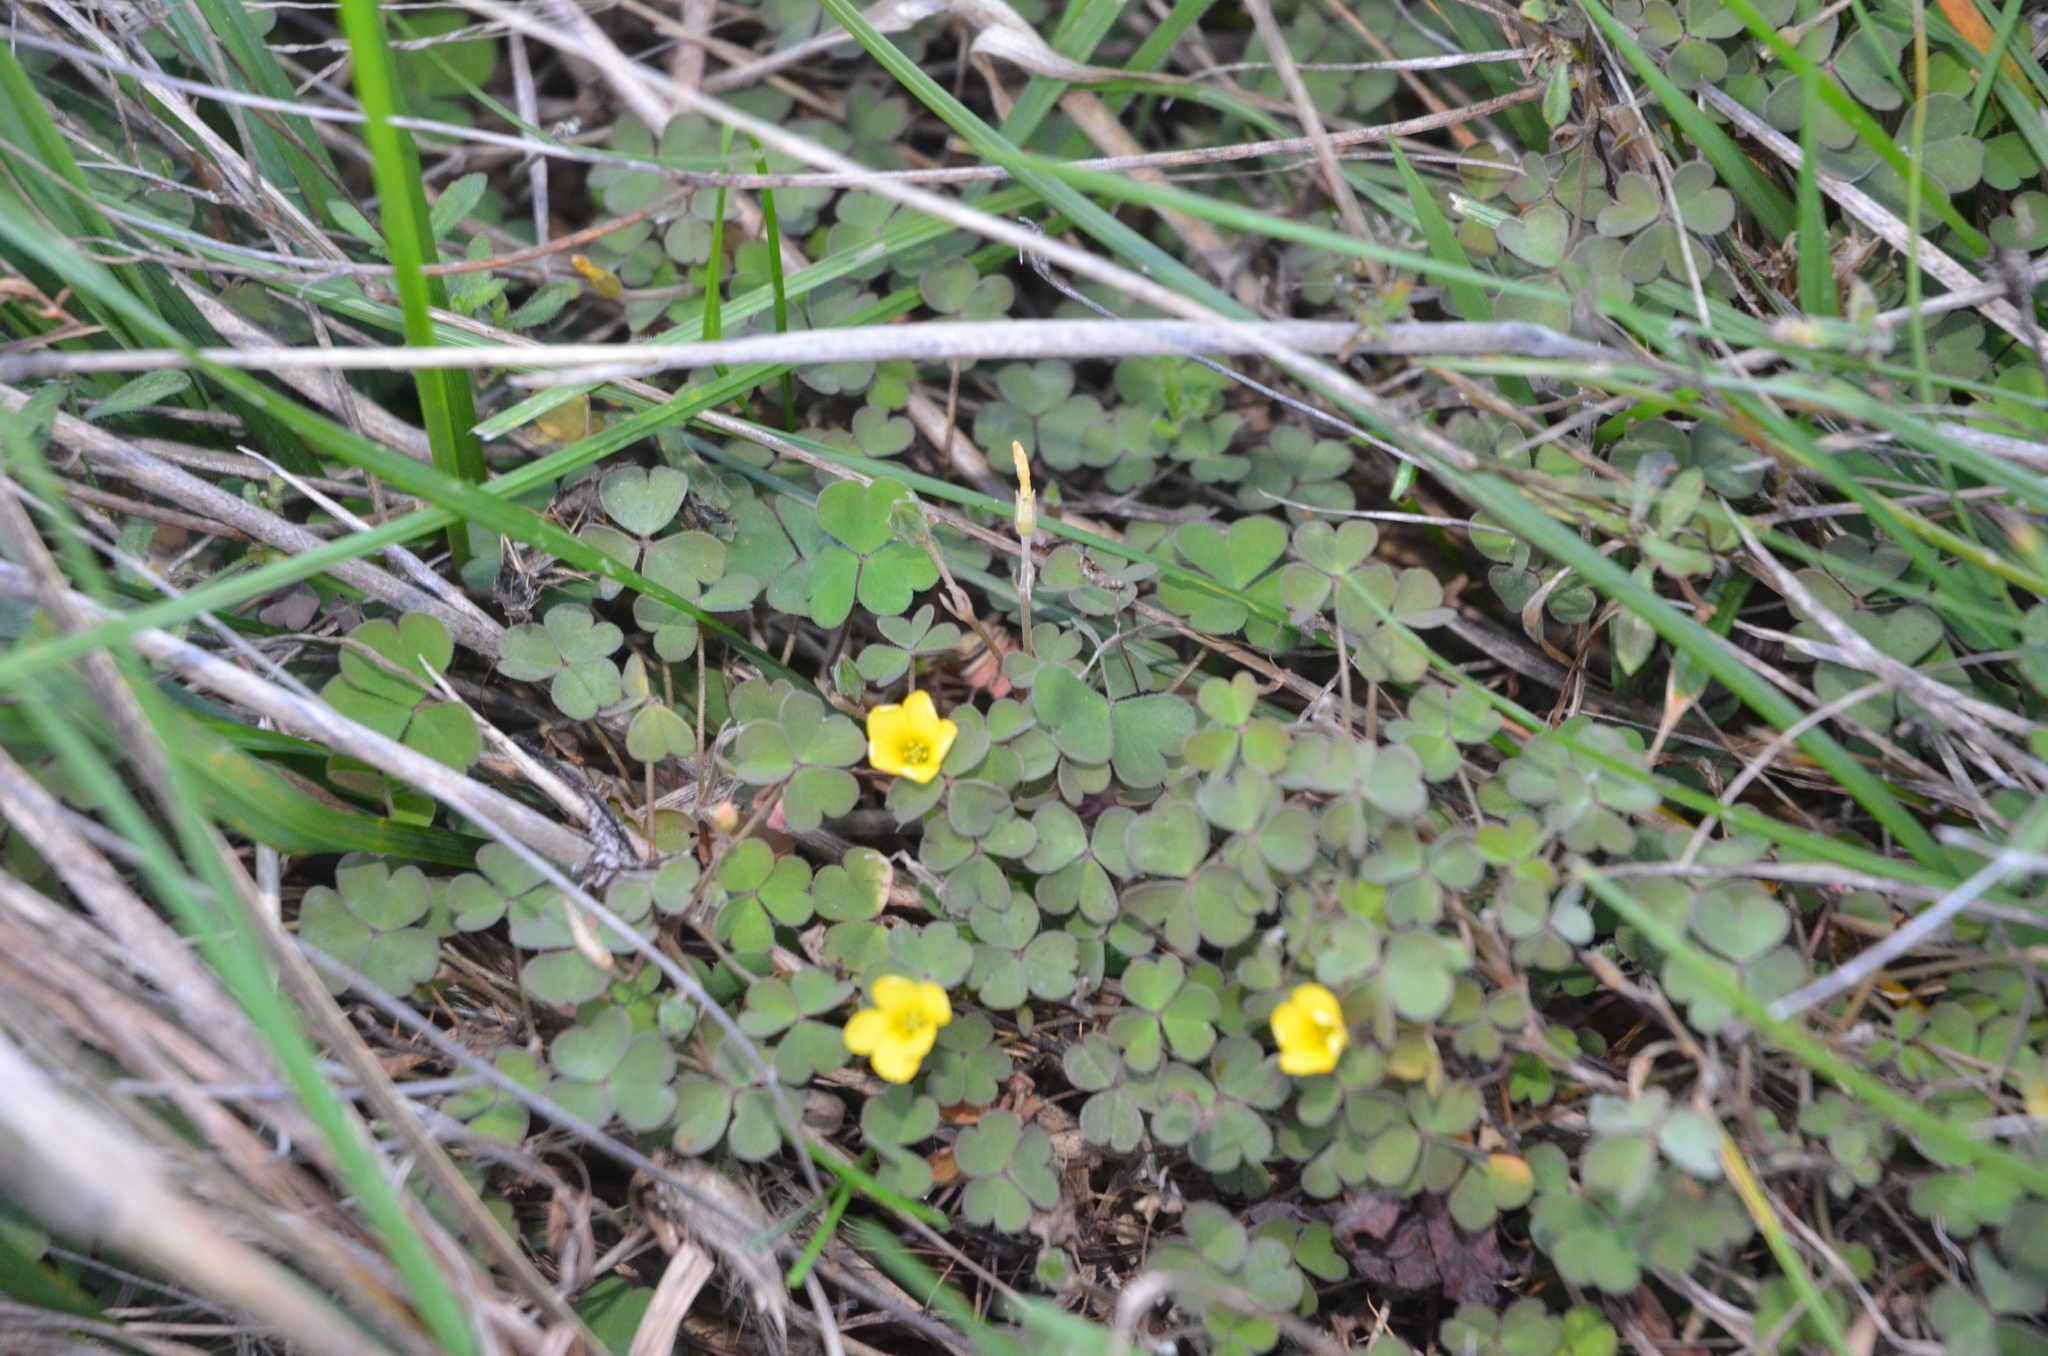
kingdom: Plantae
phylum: Tracheophyta
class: Magnoliopsida
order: Oxalidales
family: Oxalidaceae
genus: Oxalis
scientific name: Oxalis exilis
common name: Least yellow-sorrel
